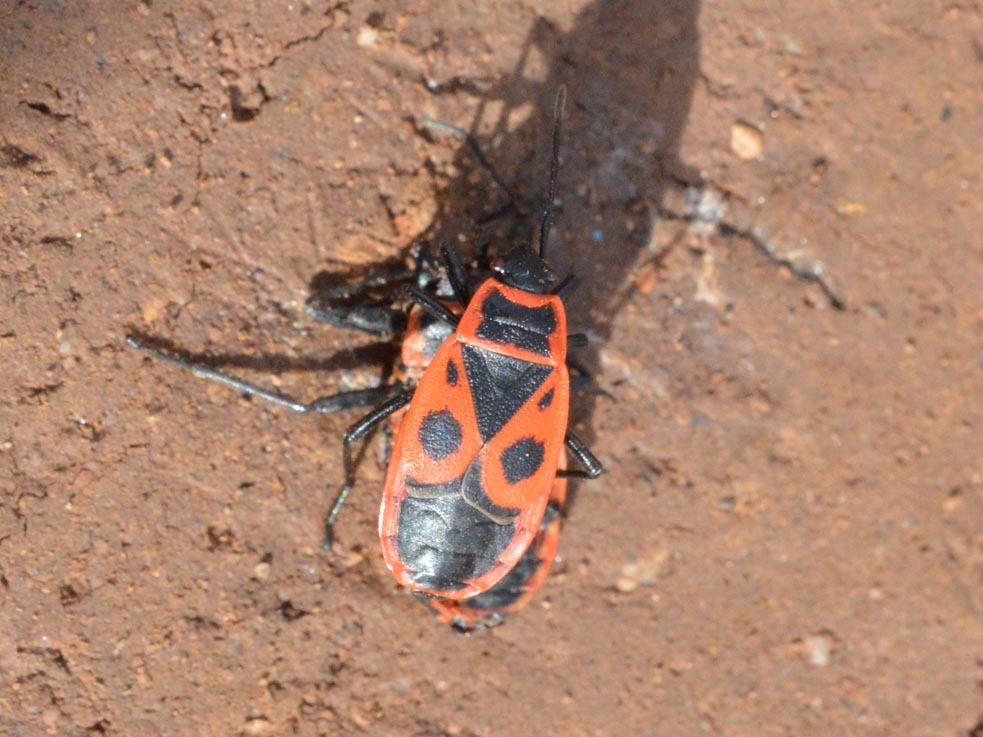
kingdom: Animalia
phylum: Arthropoda
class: Insecta
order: Hemiptera
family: Pyrrhocoridae
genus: Pyrrhocoris
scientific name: Pyrrhocoris apterus
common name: Firebug
